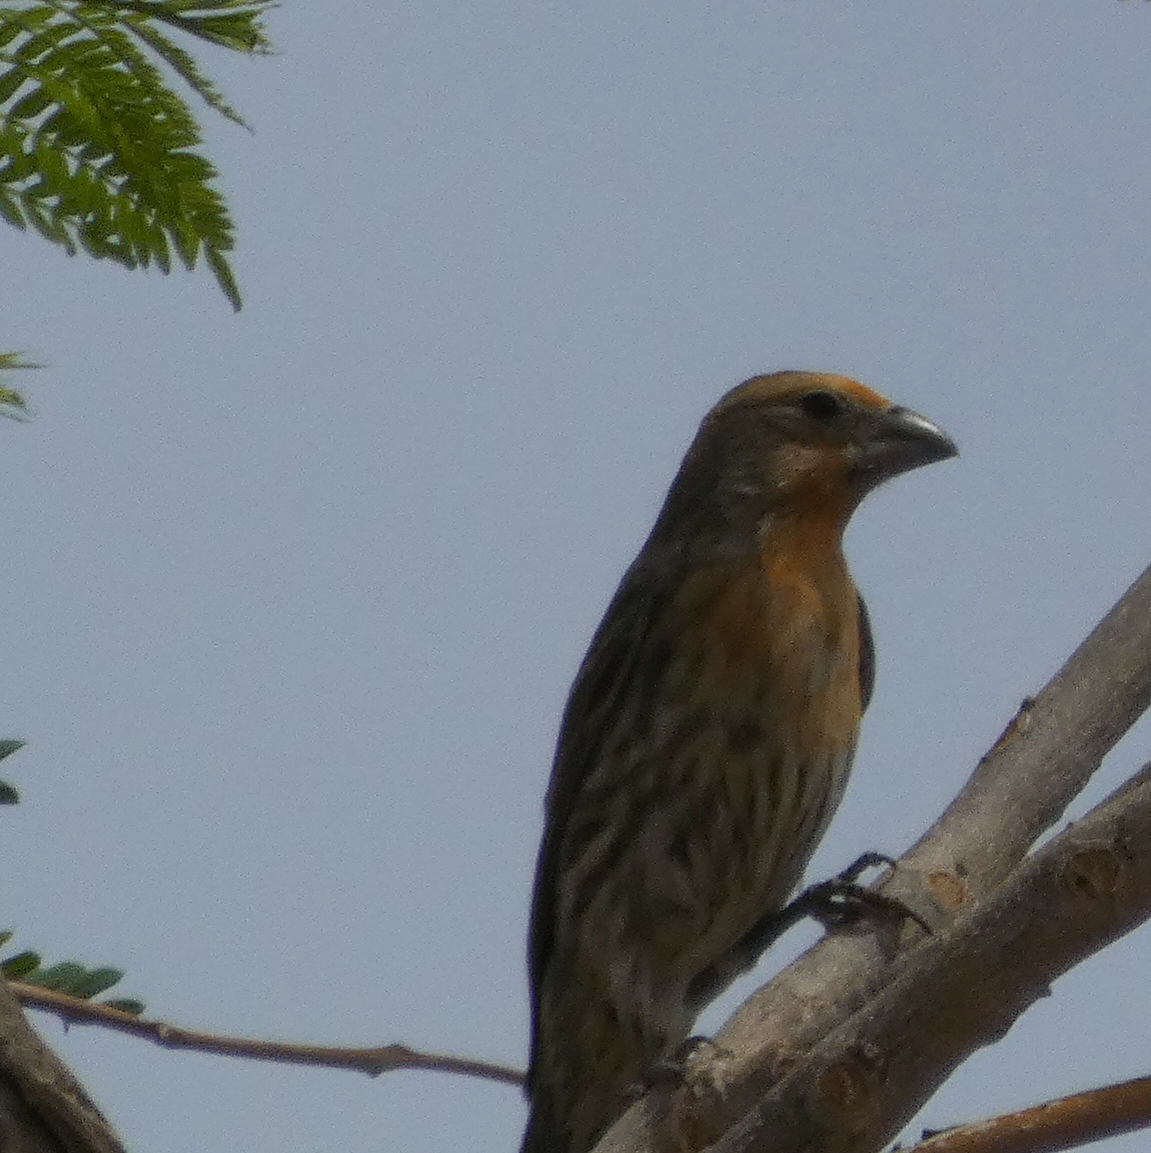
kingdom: Animalia
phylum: Chordata
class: Aves
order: Passeriformes
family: Fringillidae
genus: Haemorhous
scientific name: Haemorhous mexicanus
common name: House finch
